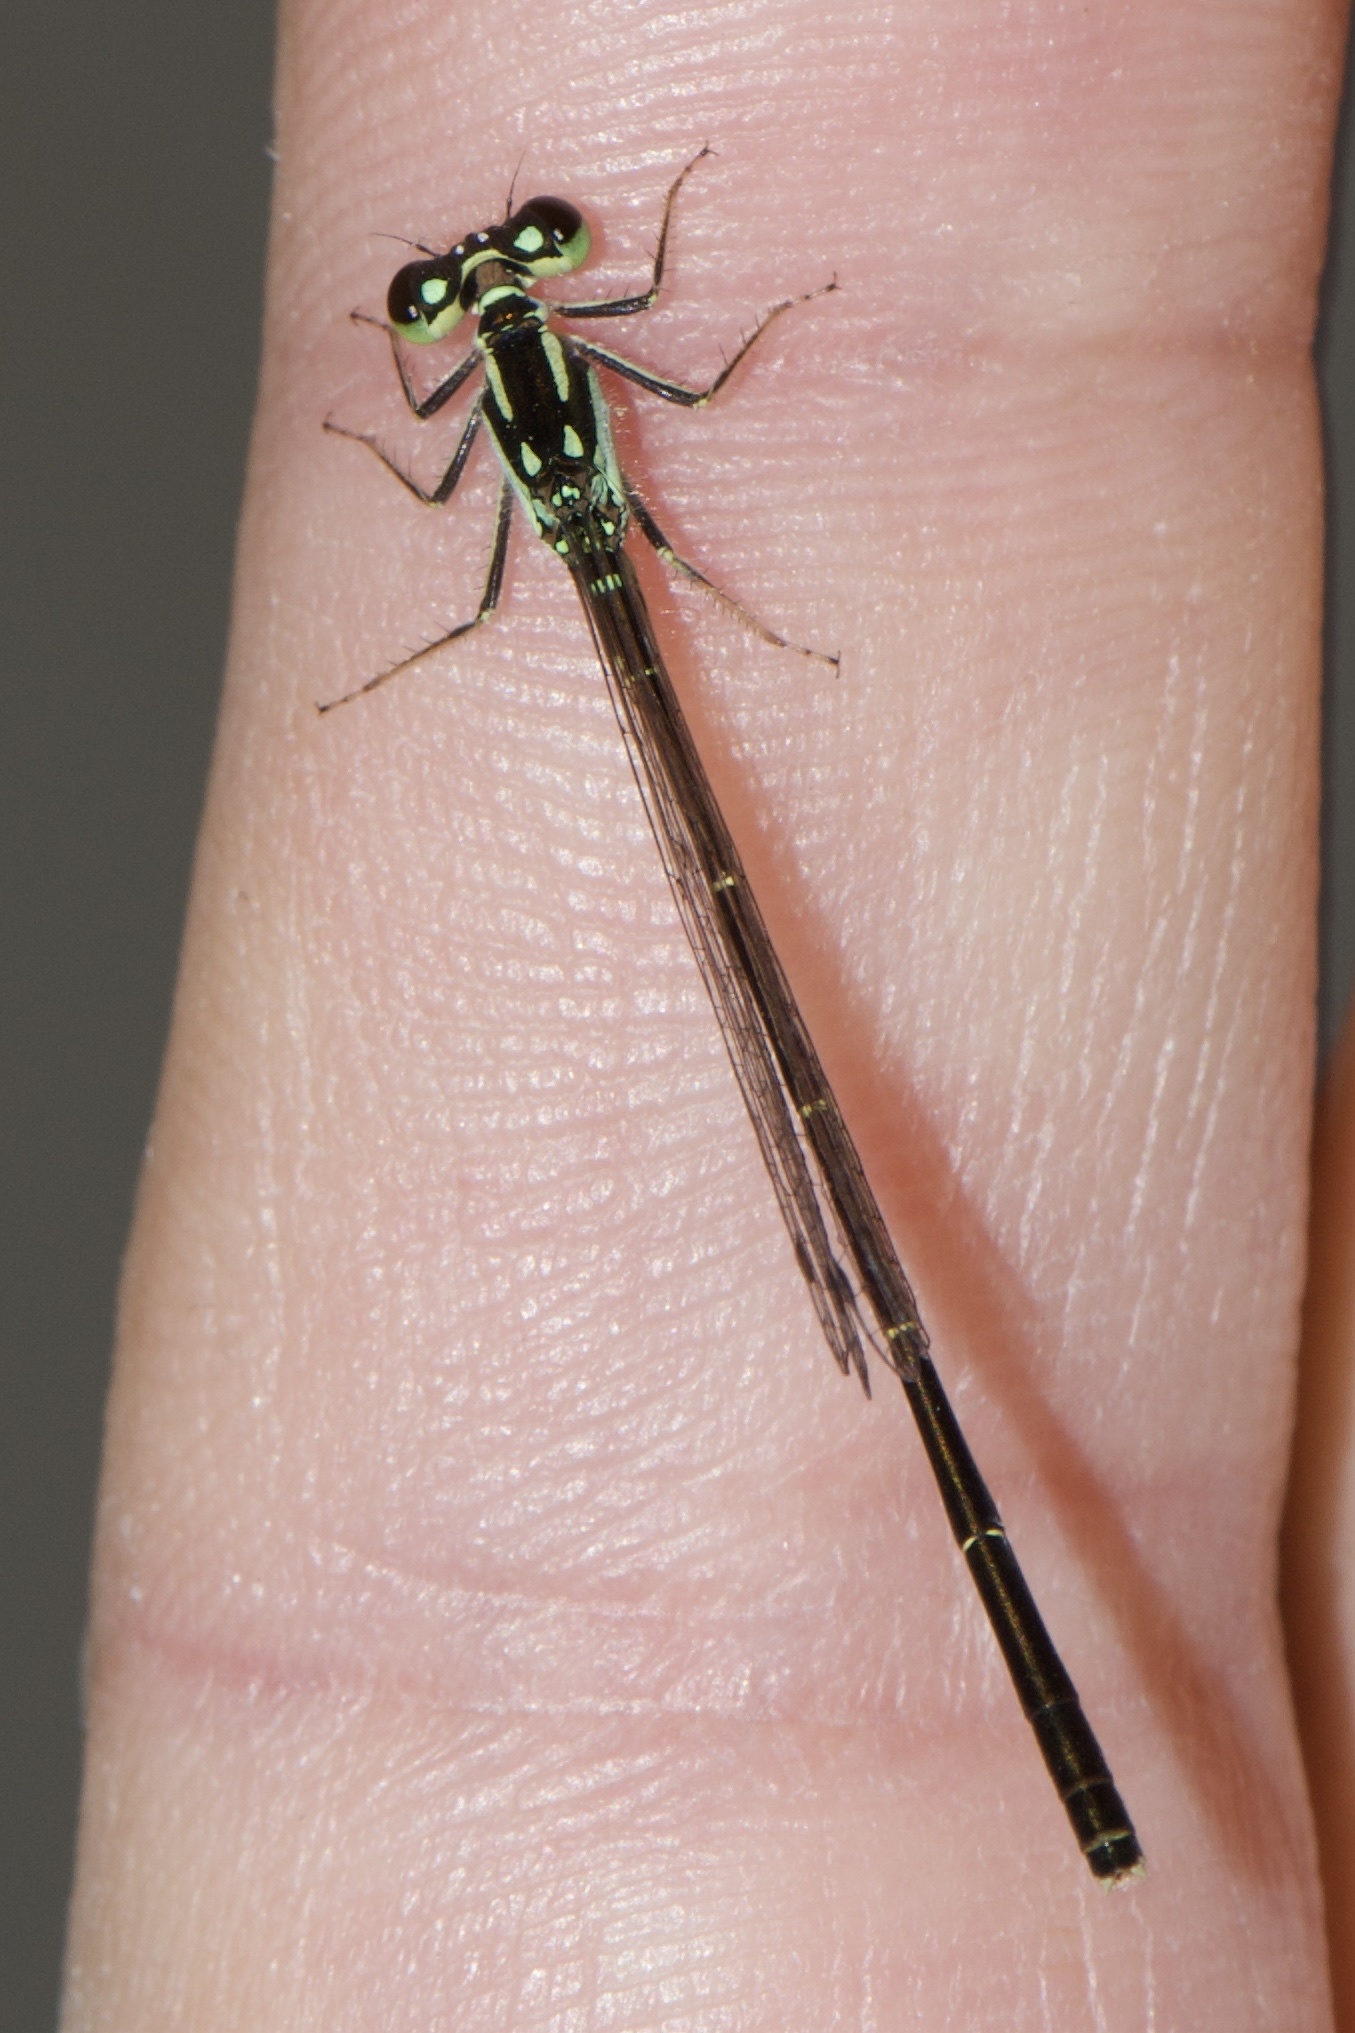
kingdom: Animalia
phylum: Arthropoda
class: Insecta
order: Odonata
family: Coenagrionidae
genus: Ischnura
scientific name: Ischnura posita
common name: Fragile forktail
